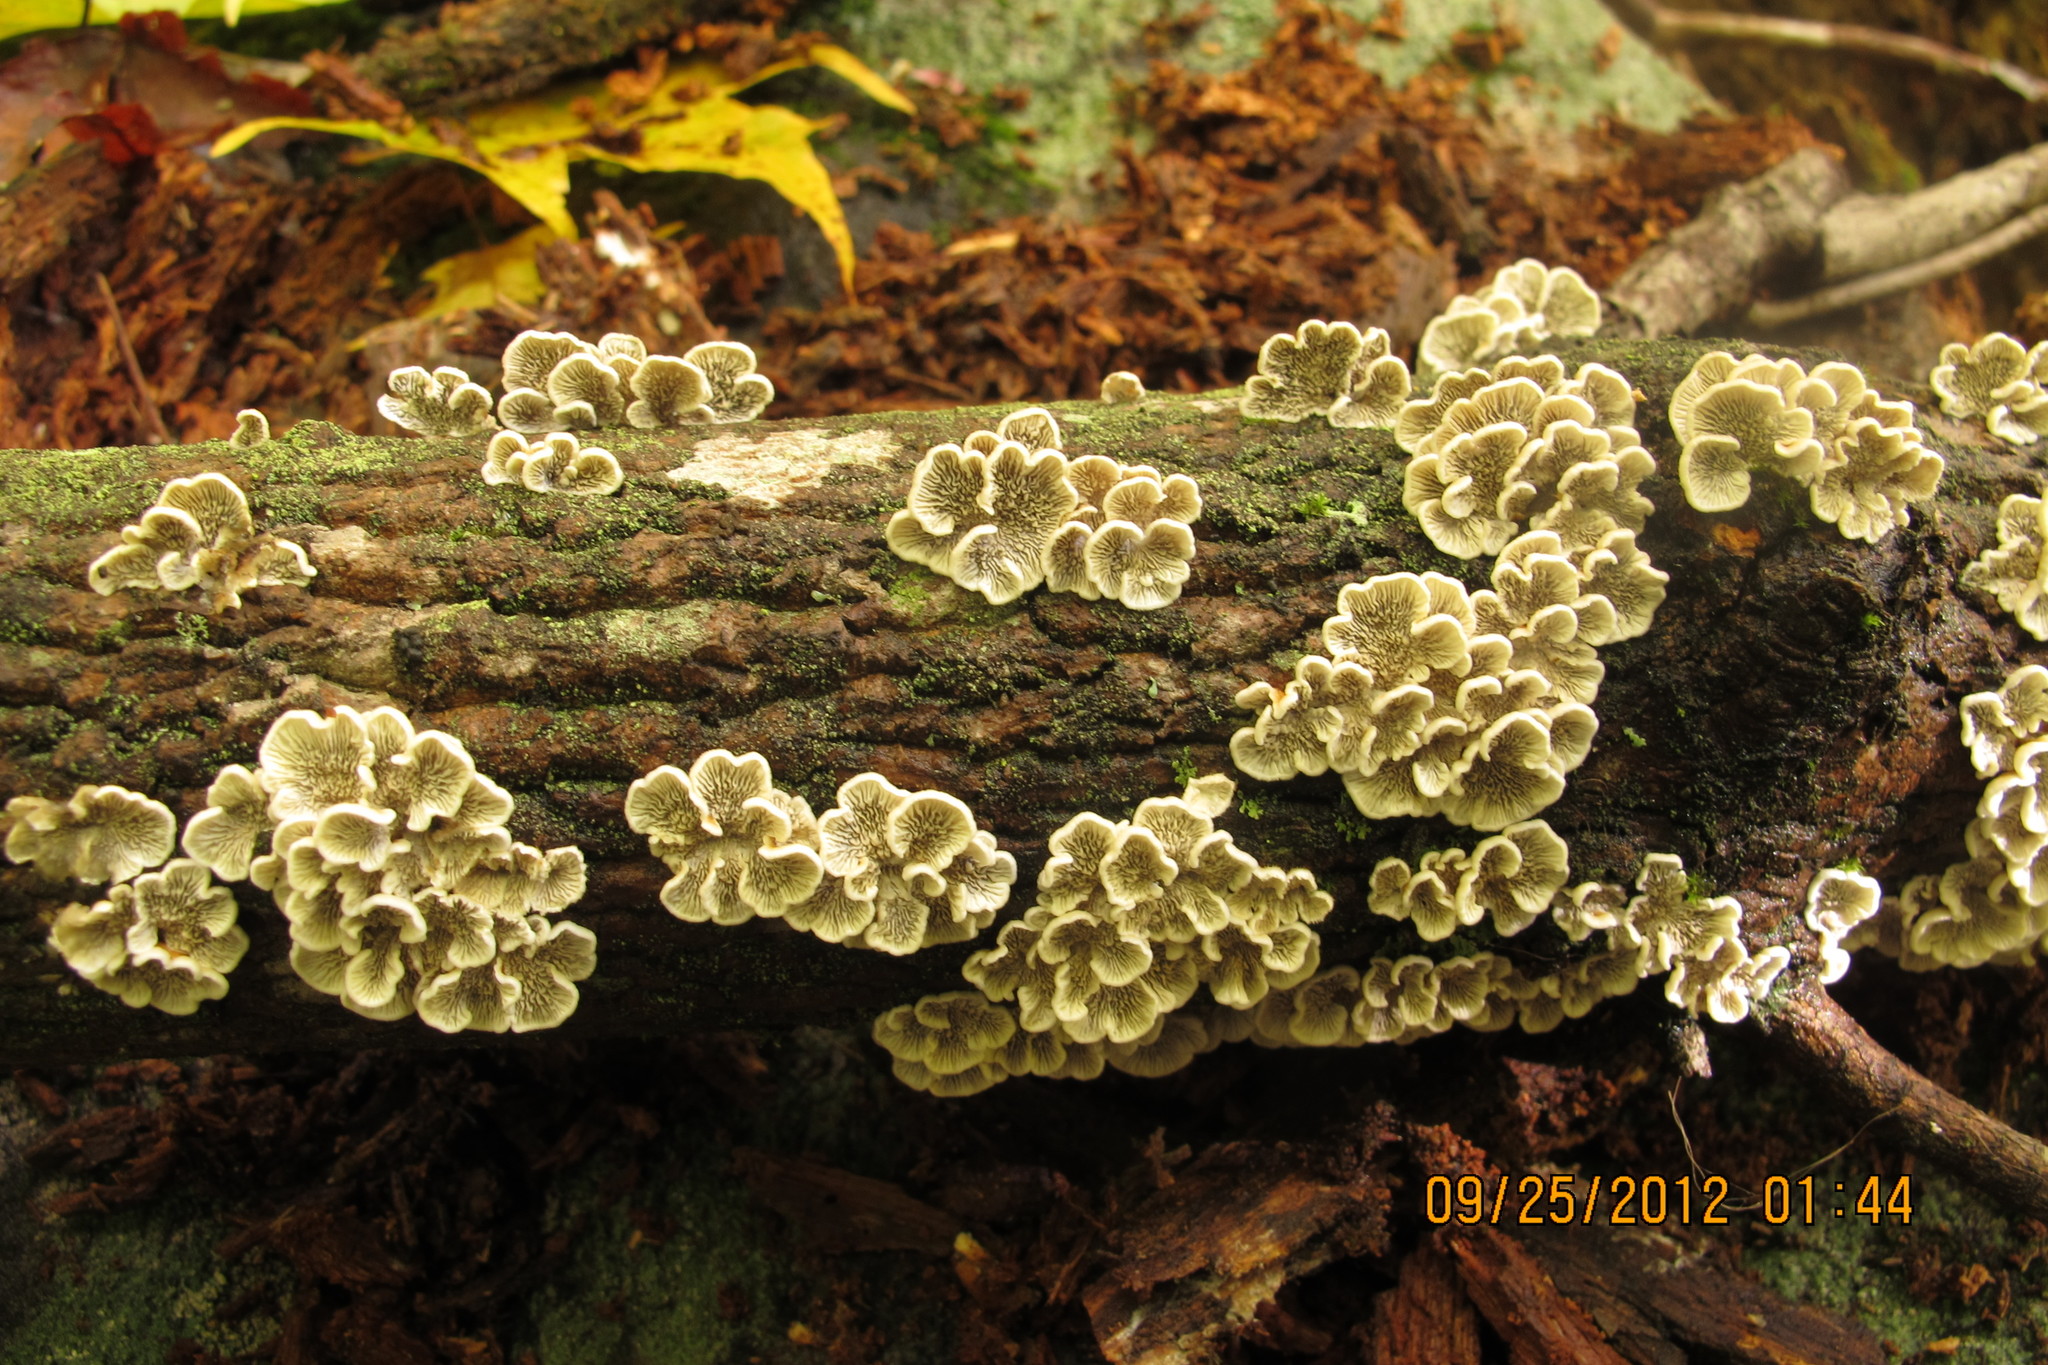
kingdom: Fungi
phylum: Basidiomycota
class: Agaricomycetes
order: Amylocorticiales
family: Amylocorticiaceae
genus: Plicaturopsis
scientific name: Plicaturopsis crispa
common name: Crimped gill
